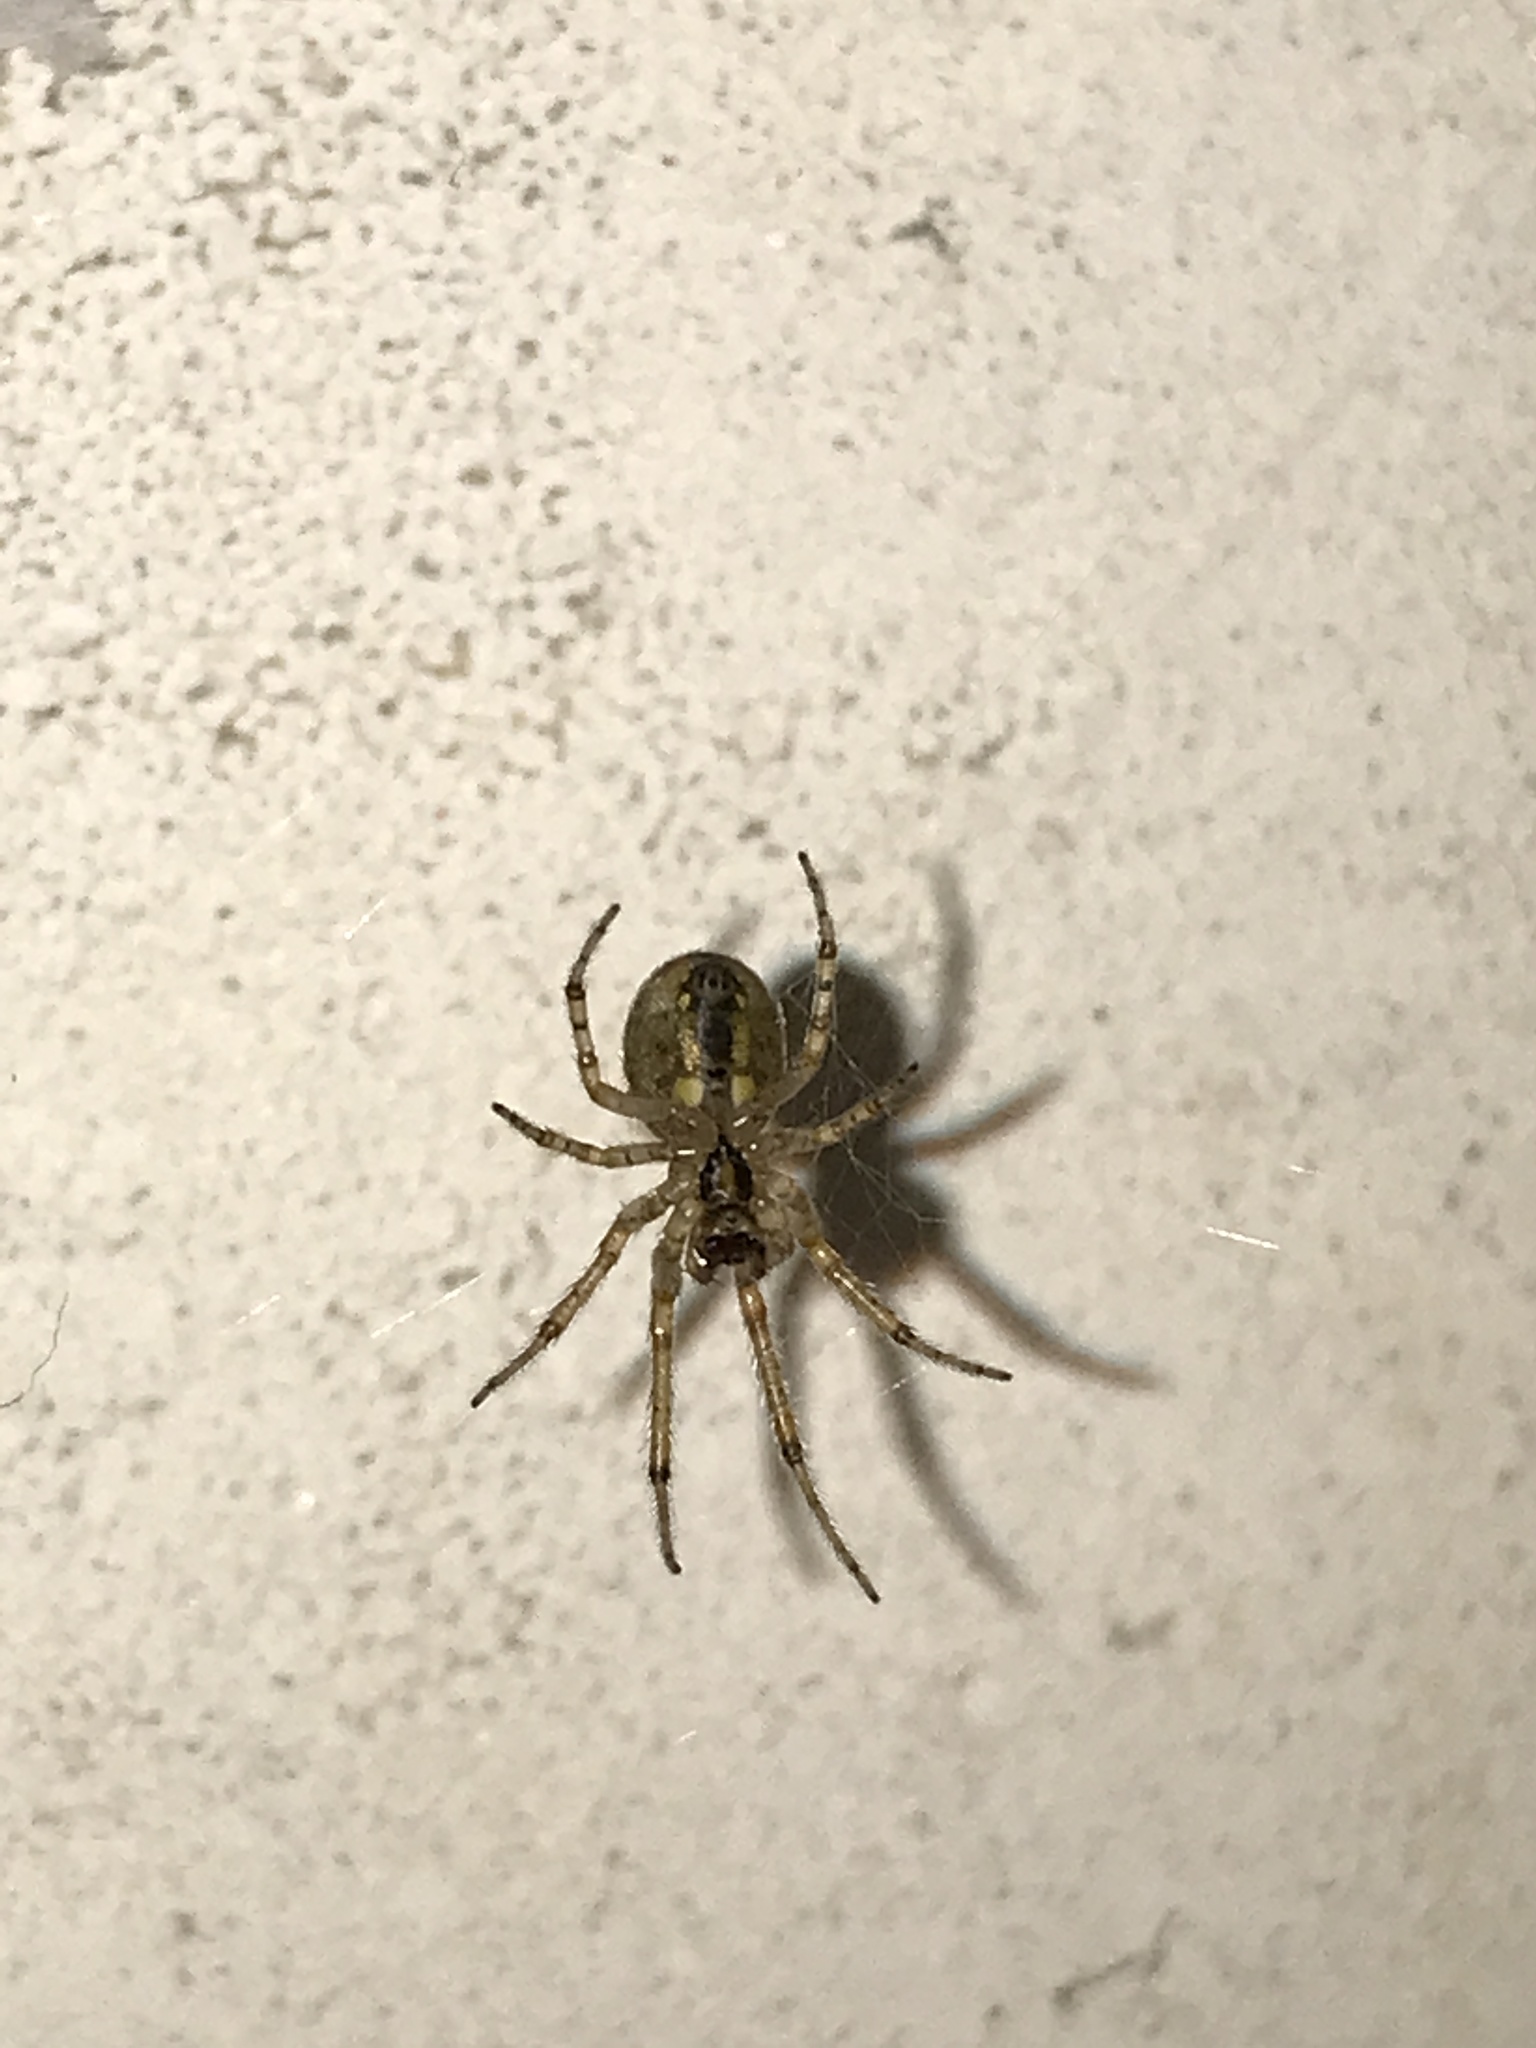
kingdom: Animalia
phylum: Arthropoda
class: Arachnida
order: Araneae
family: Araneidae
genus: Zygiella
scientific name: Zygiella x-notata
